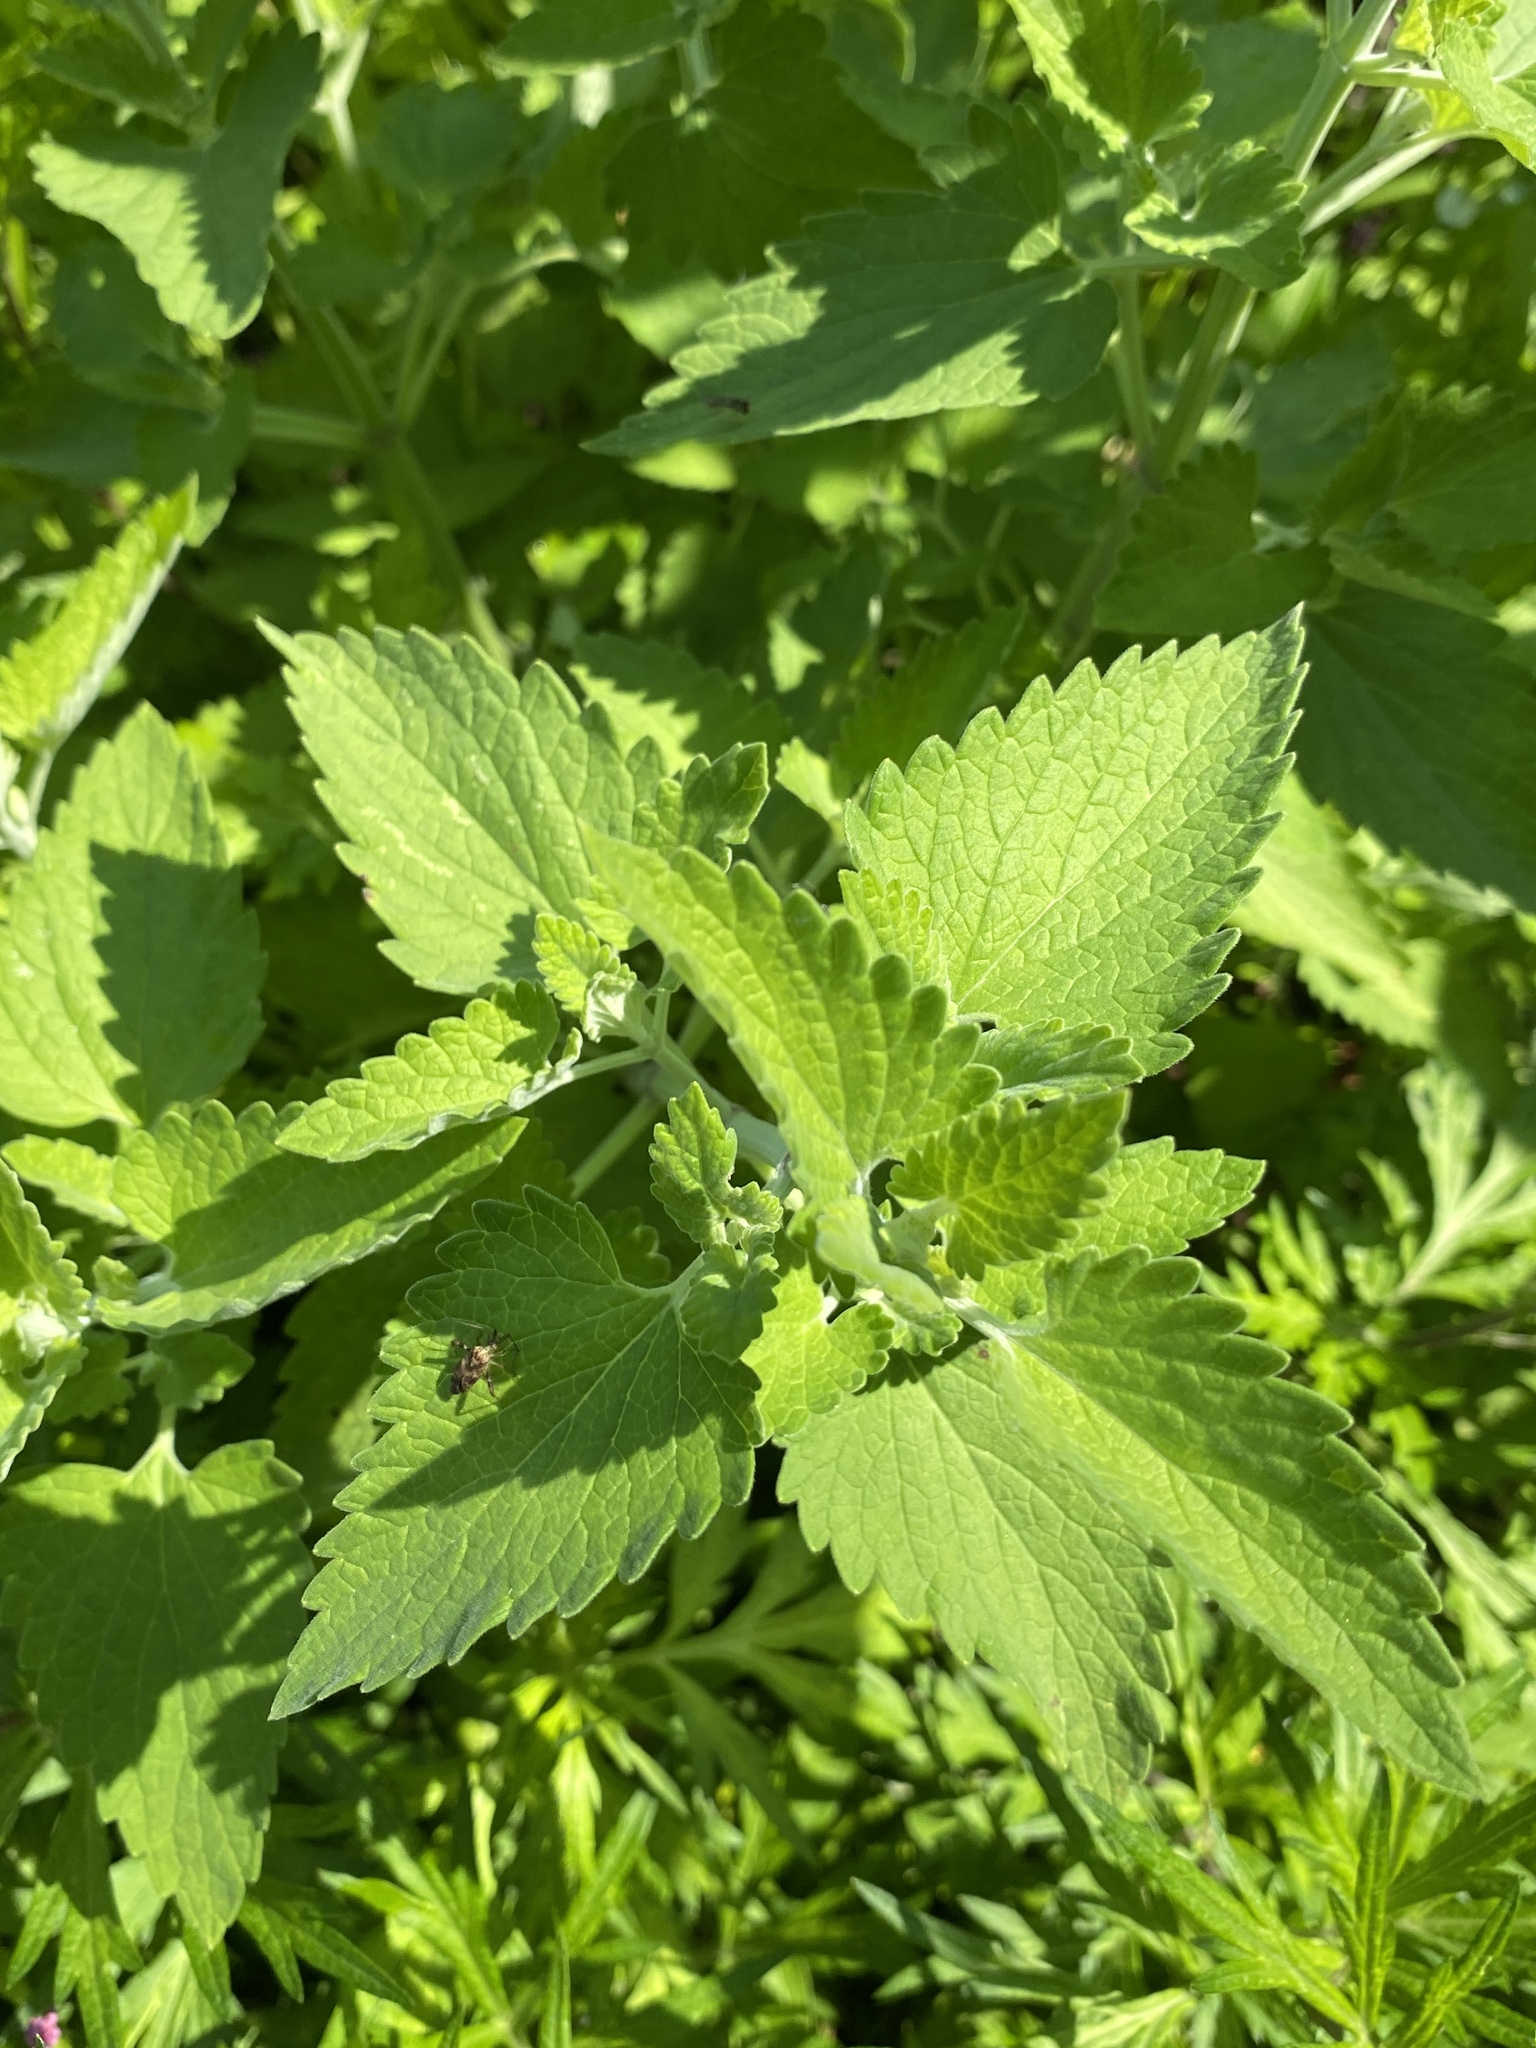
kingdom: Plantae
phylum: Tracheophyta
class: Magnoliopsida
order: Lamiales
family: Lamiaceae
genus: Nepeta
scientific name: Nepeta cataria
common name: Catnip
